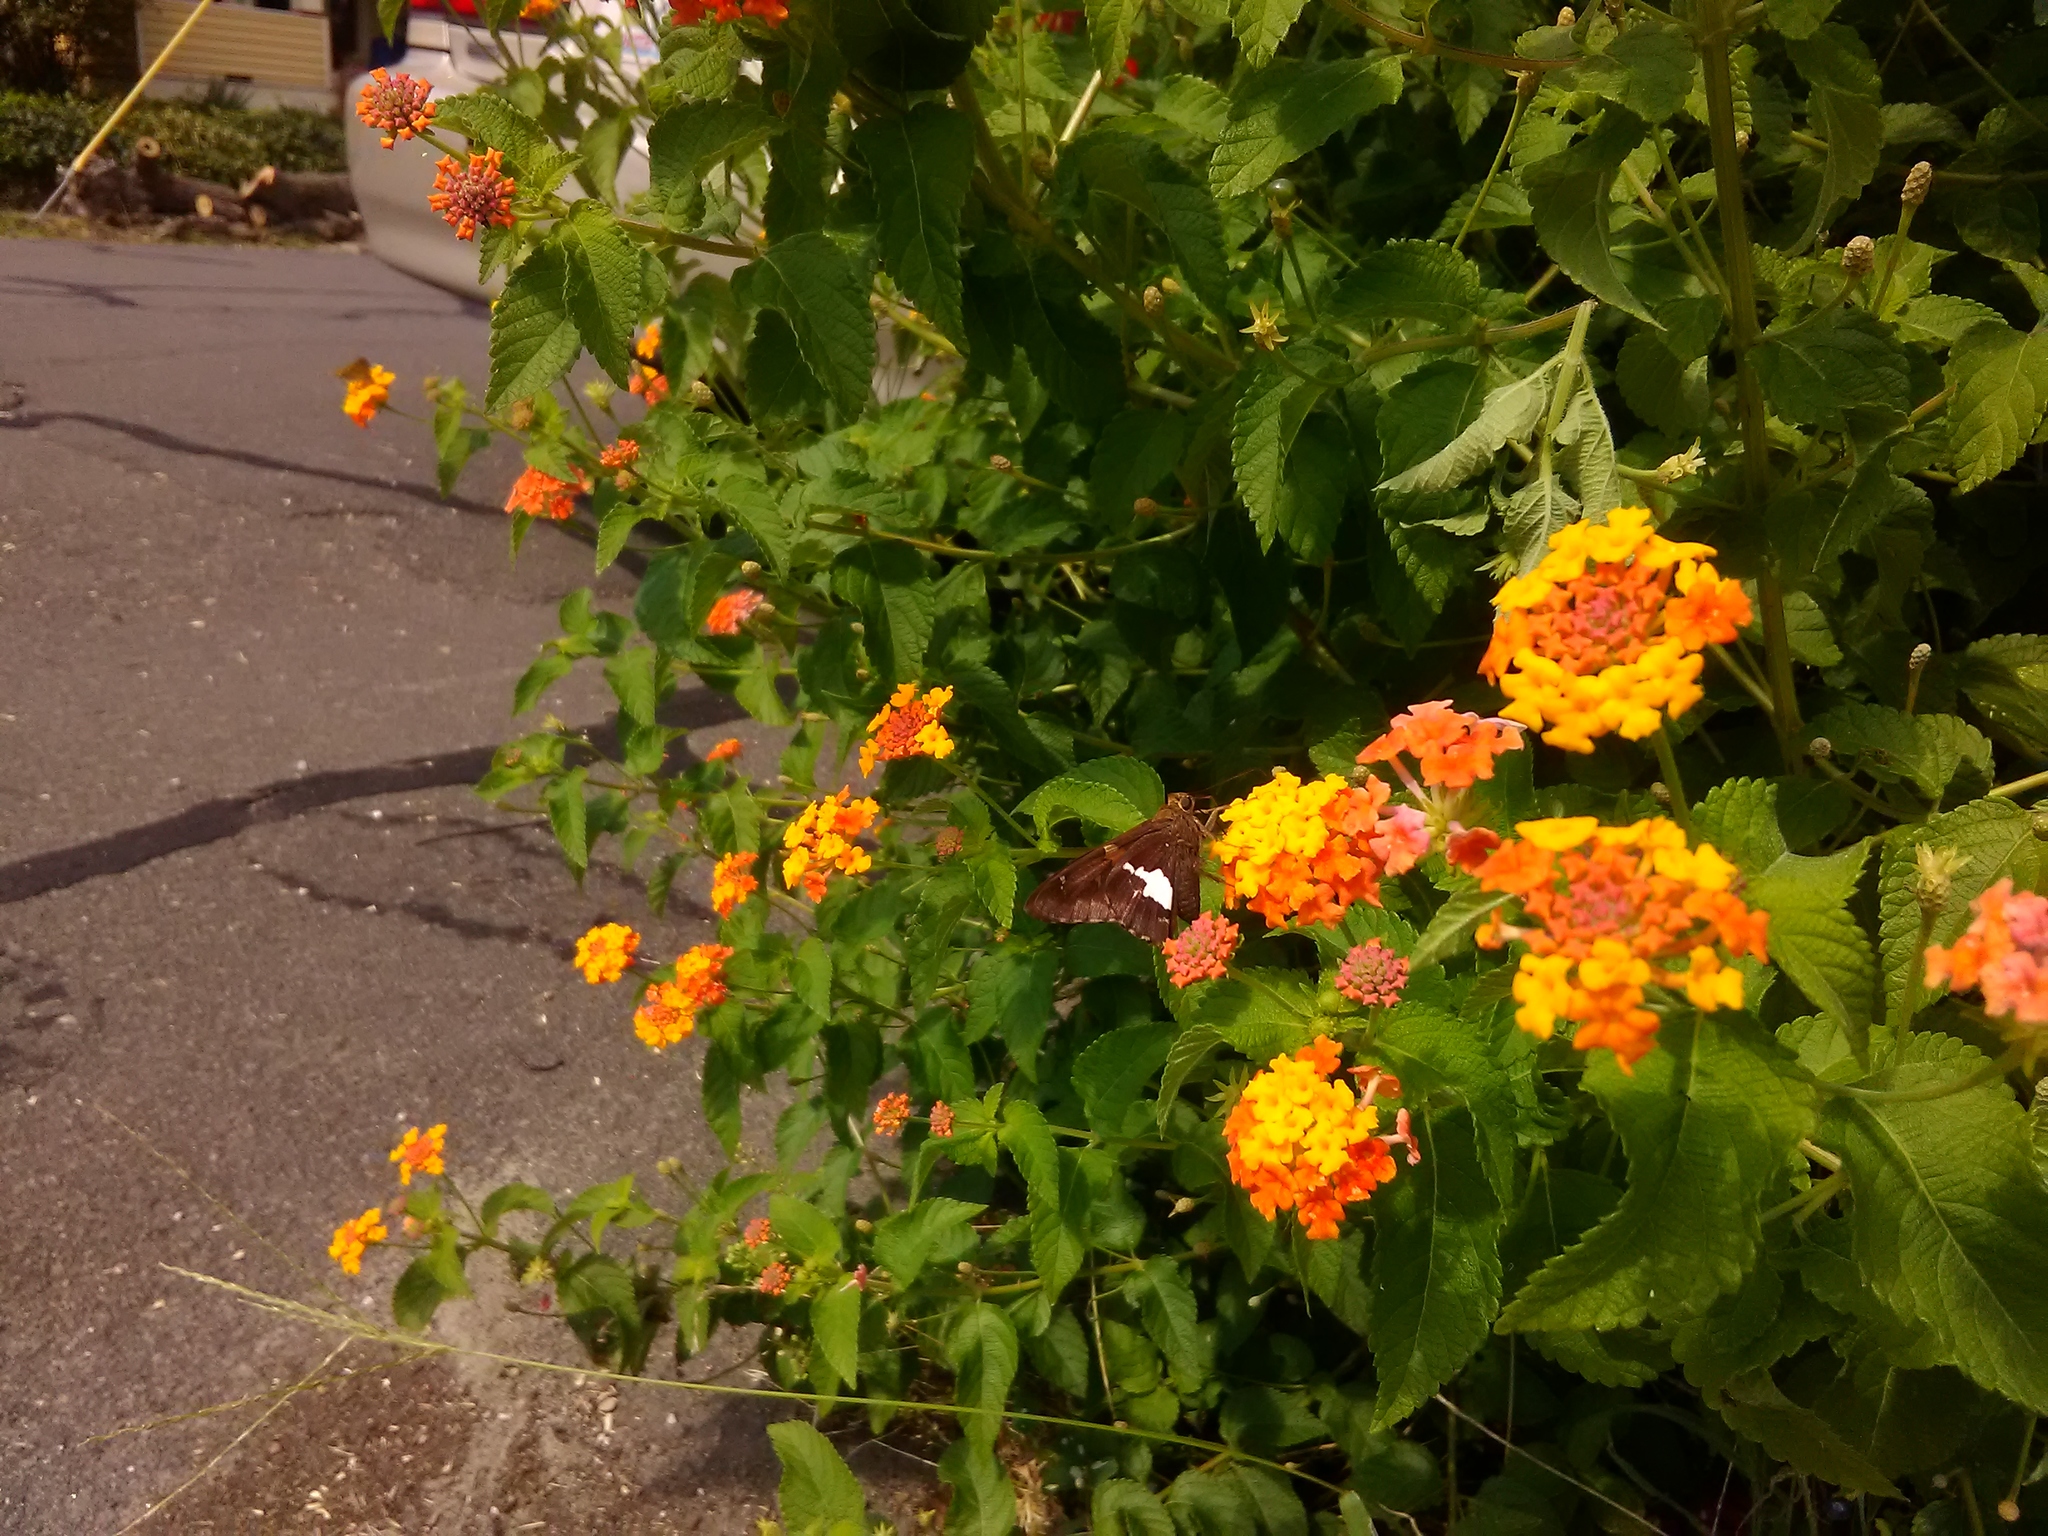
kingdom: Animalia
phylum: Arthropoda
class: Insecta
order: Lepidoptera
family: Hesperiidae
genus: Epargyreus
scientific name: Epargyreus clarus
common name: Silver-spotted skipper
